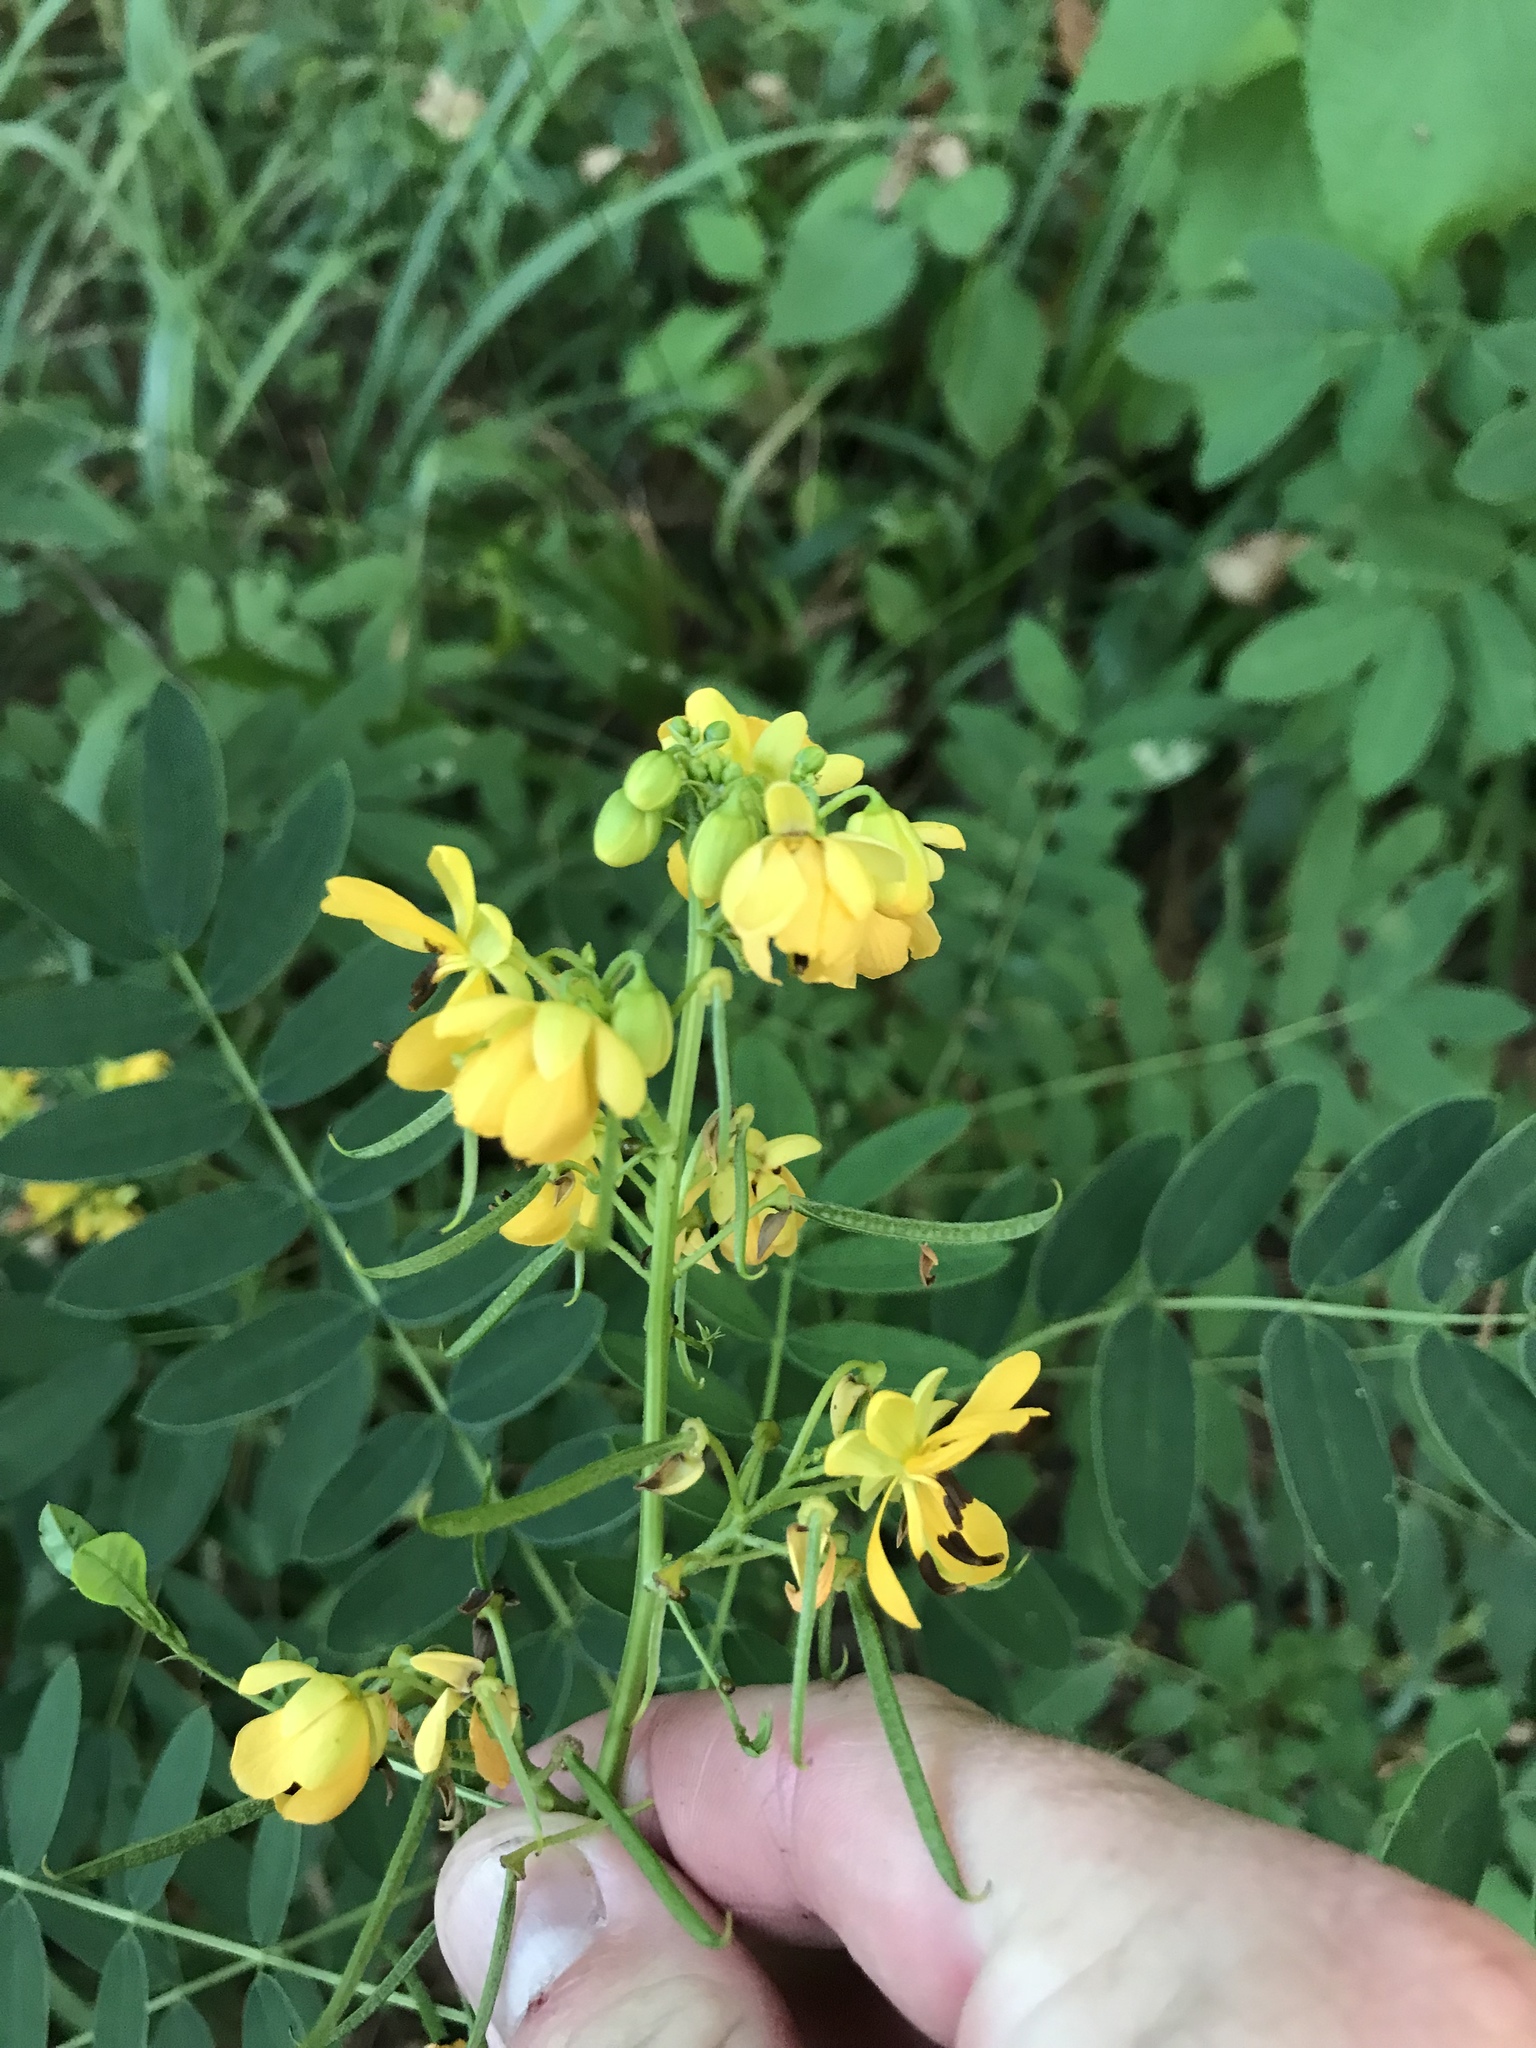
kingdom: Plantae
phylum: Tracheophyta
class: Magnoliopsida
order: Fabales
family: Fabaceae
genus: Senna
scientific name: Senna marilandica
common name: American senna
